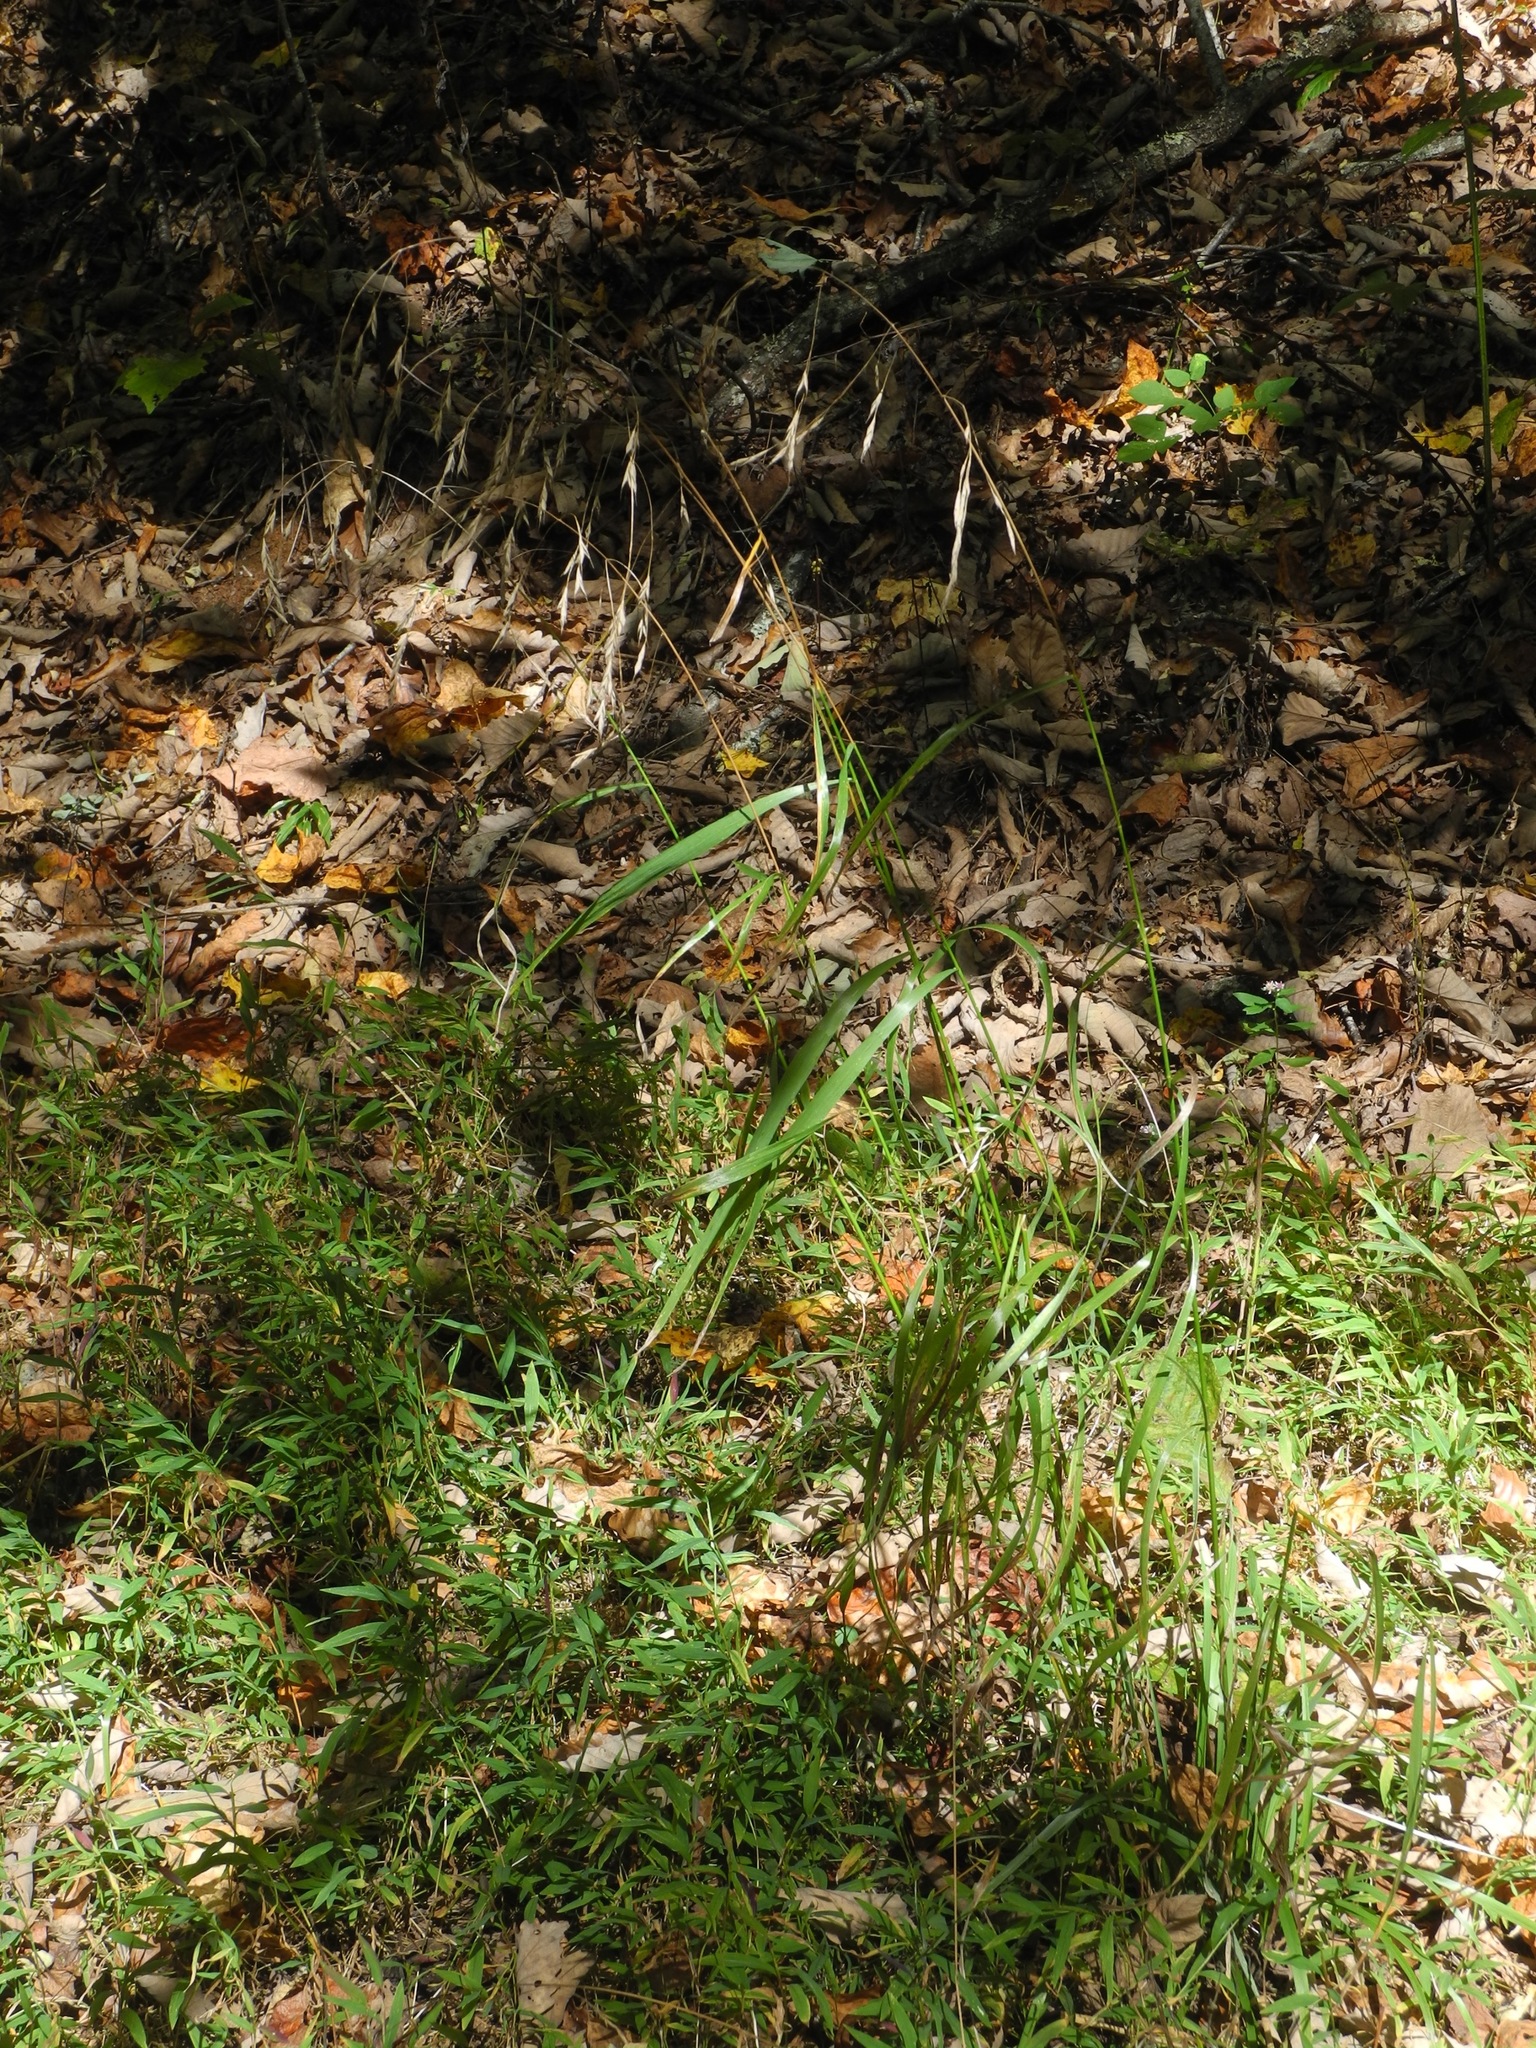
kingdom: Plantae
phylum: Tracheophyta
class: Liliopsida
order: Poales
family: Poaceae
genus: Bromus
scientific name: Bromus pubescens
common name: Hairy wood brome grass
